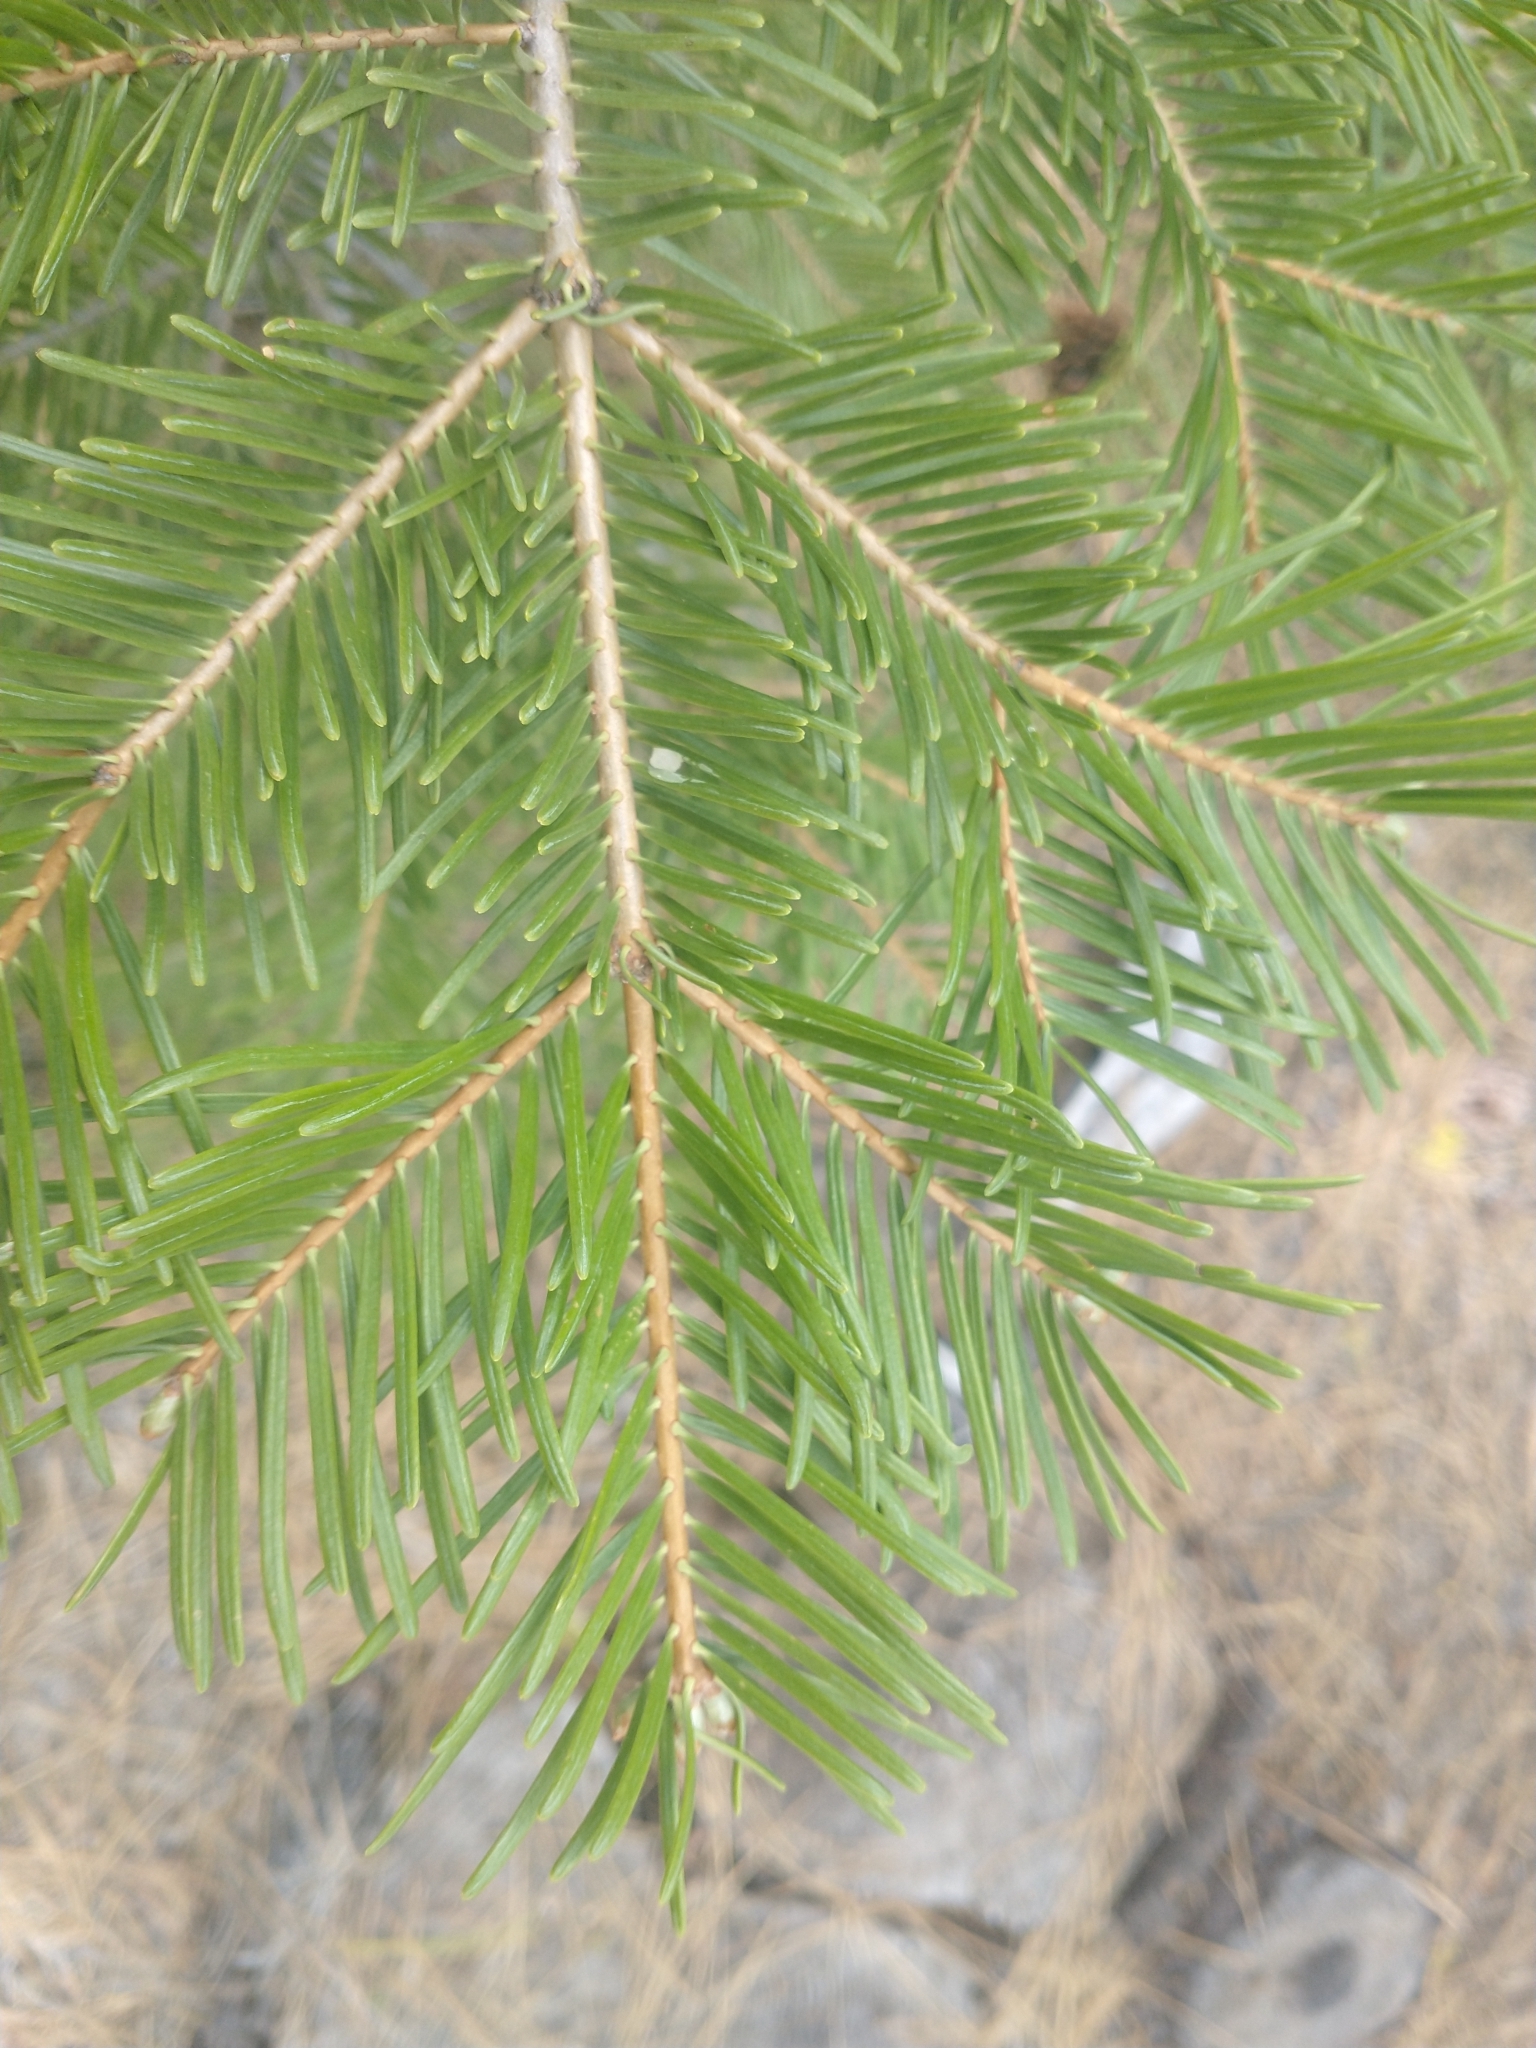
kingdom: Plantae
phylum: Tracheophyta
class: Pinopsida
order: Pinales
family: Pinaceae
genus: Abies
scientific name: Abies concolor
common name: Colorado fir
